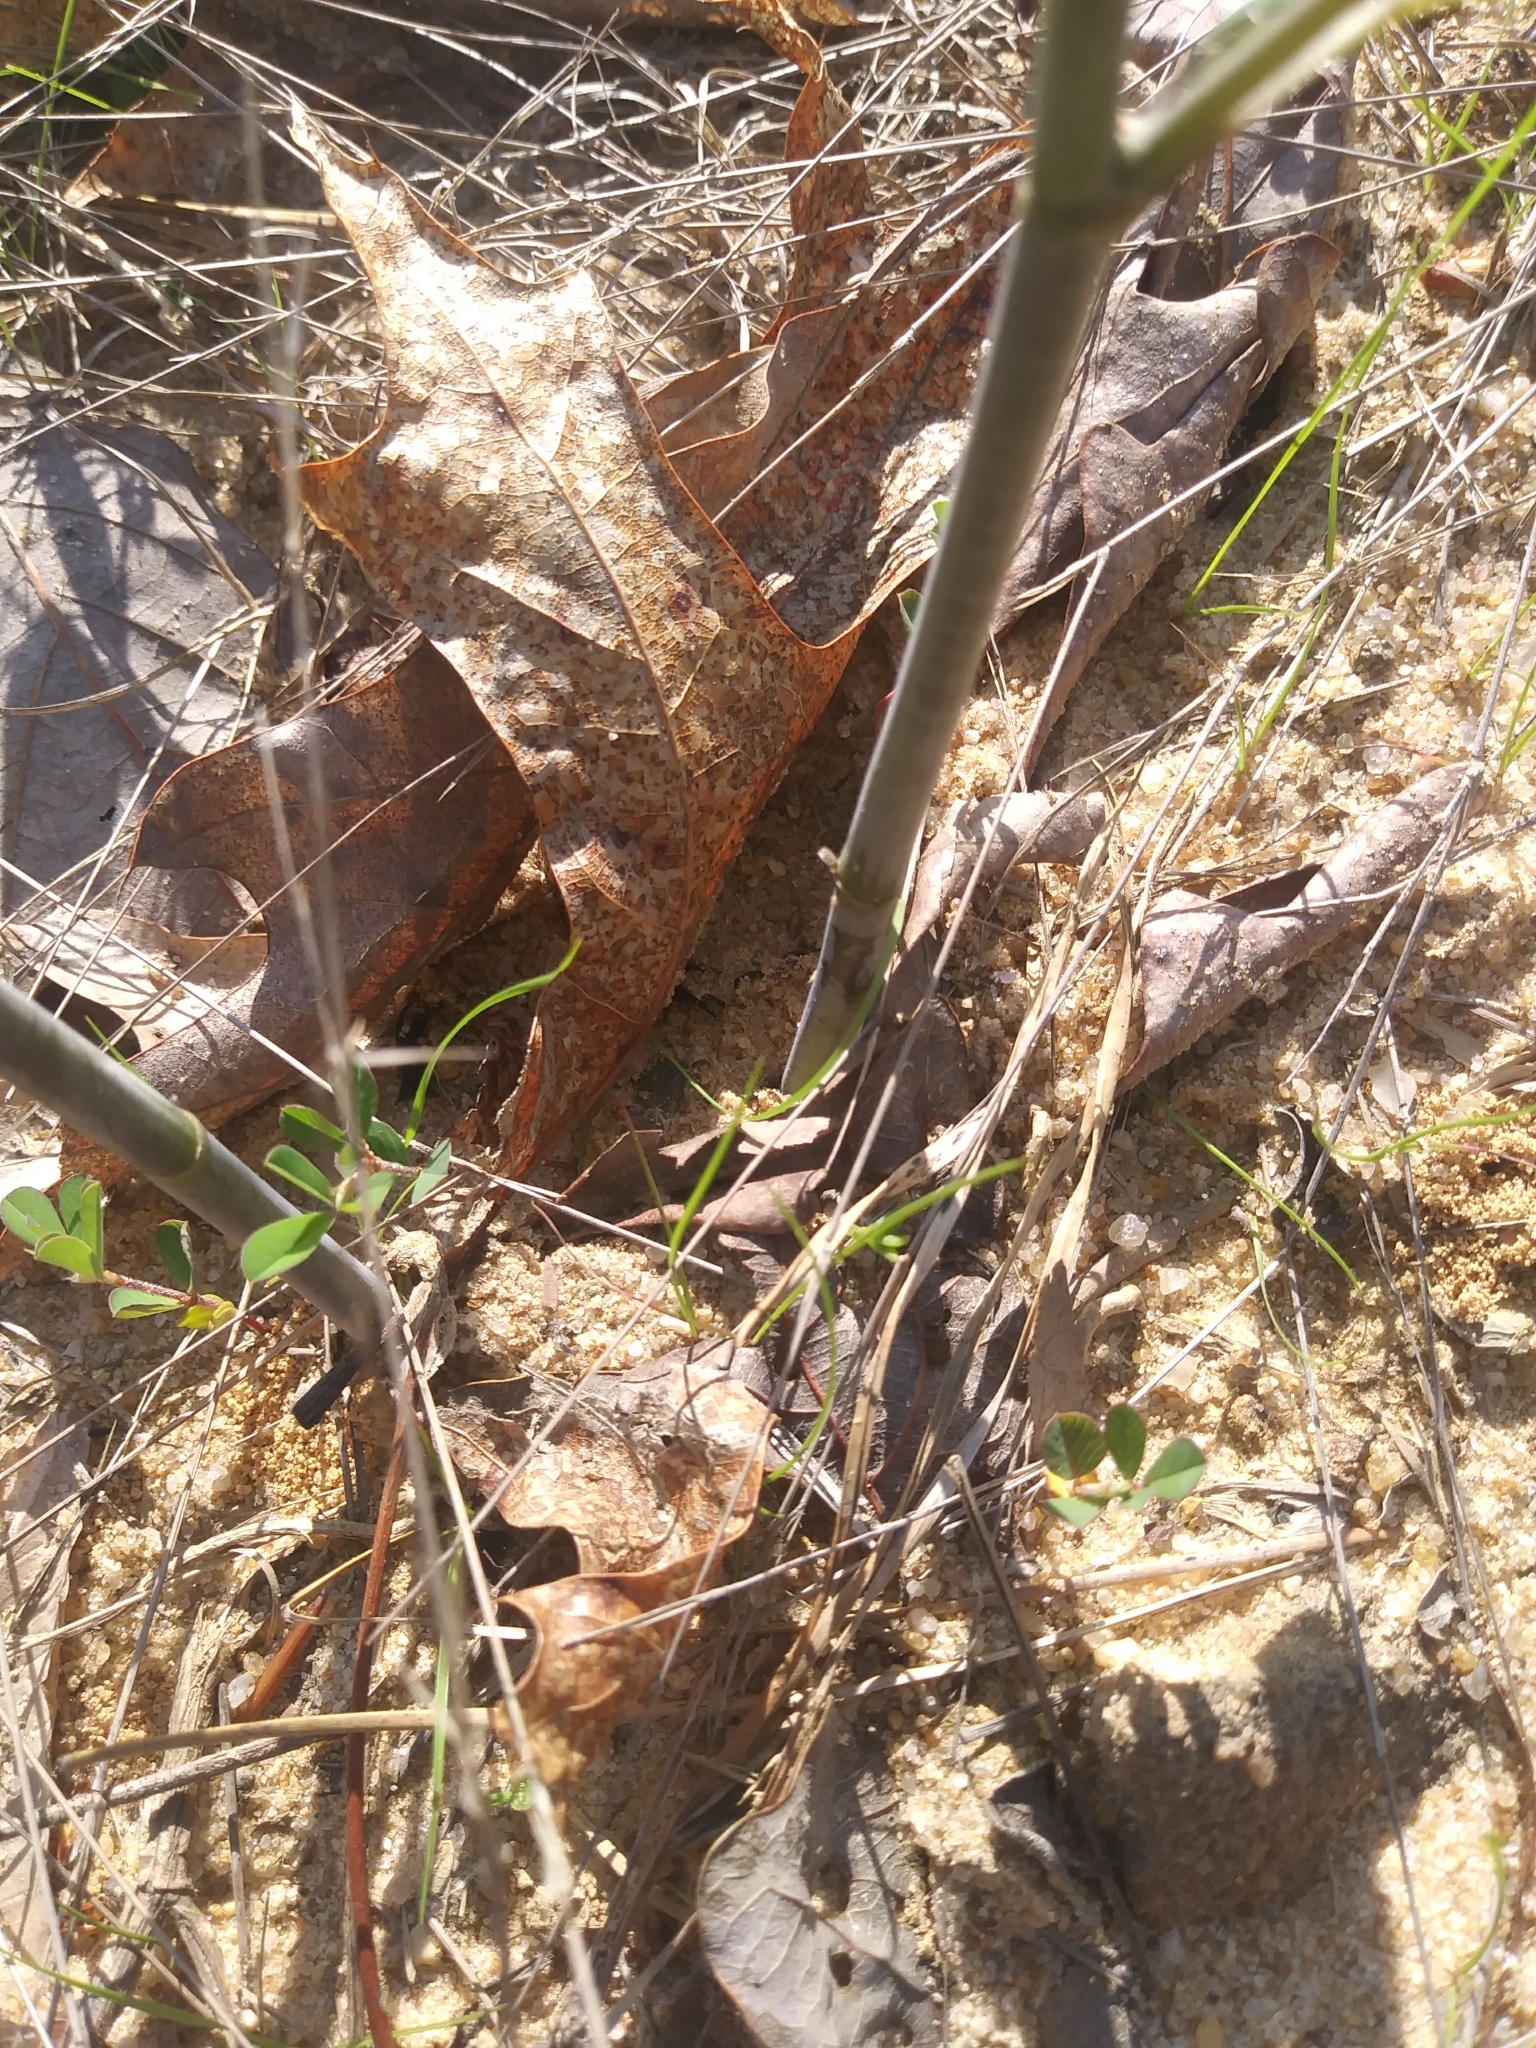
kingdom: Plantae
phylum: Tracheophyta
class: Magnoliopsida
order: Fabales
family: Fabaceae
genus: Baptisia
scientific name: Baptisia tinctoria
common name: Wild indigo
